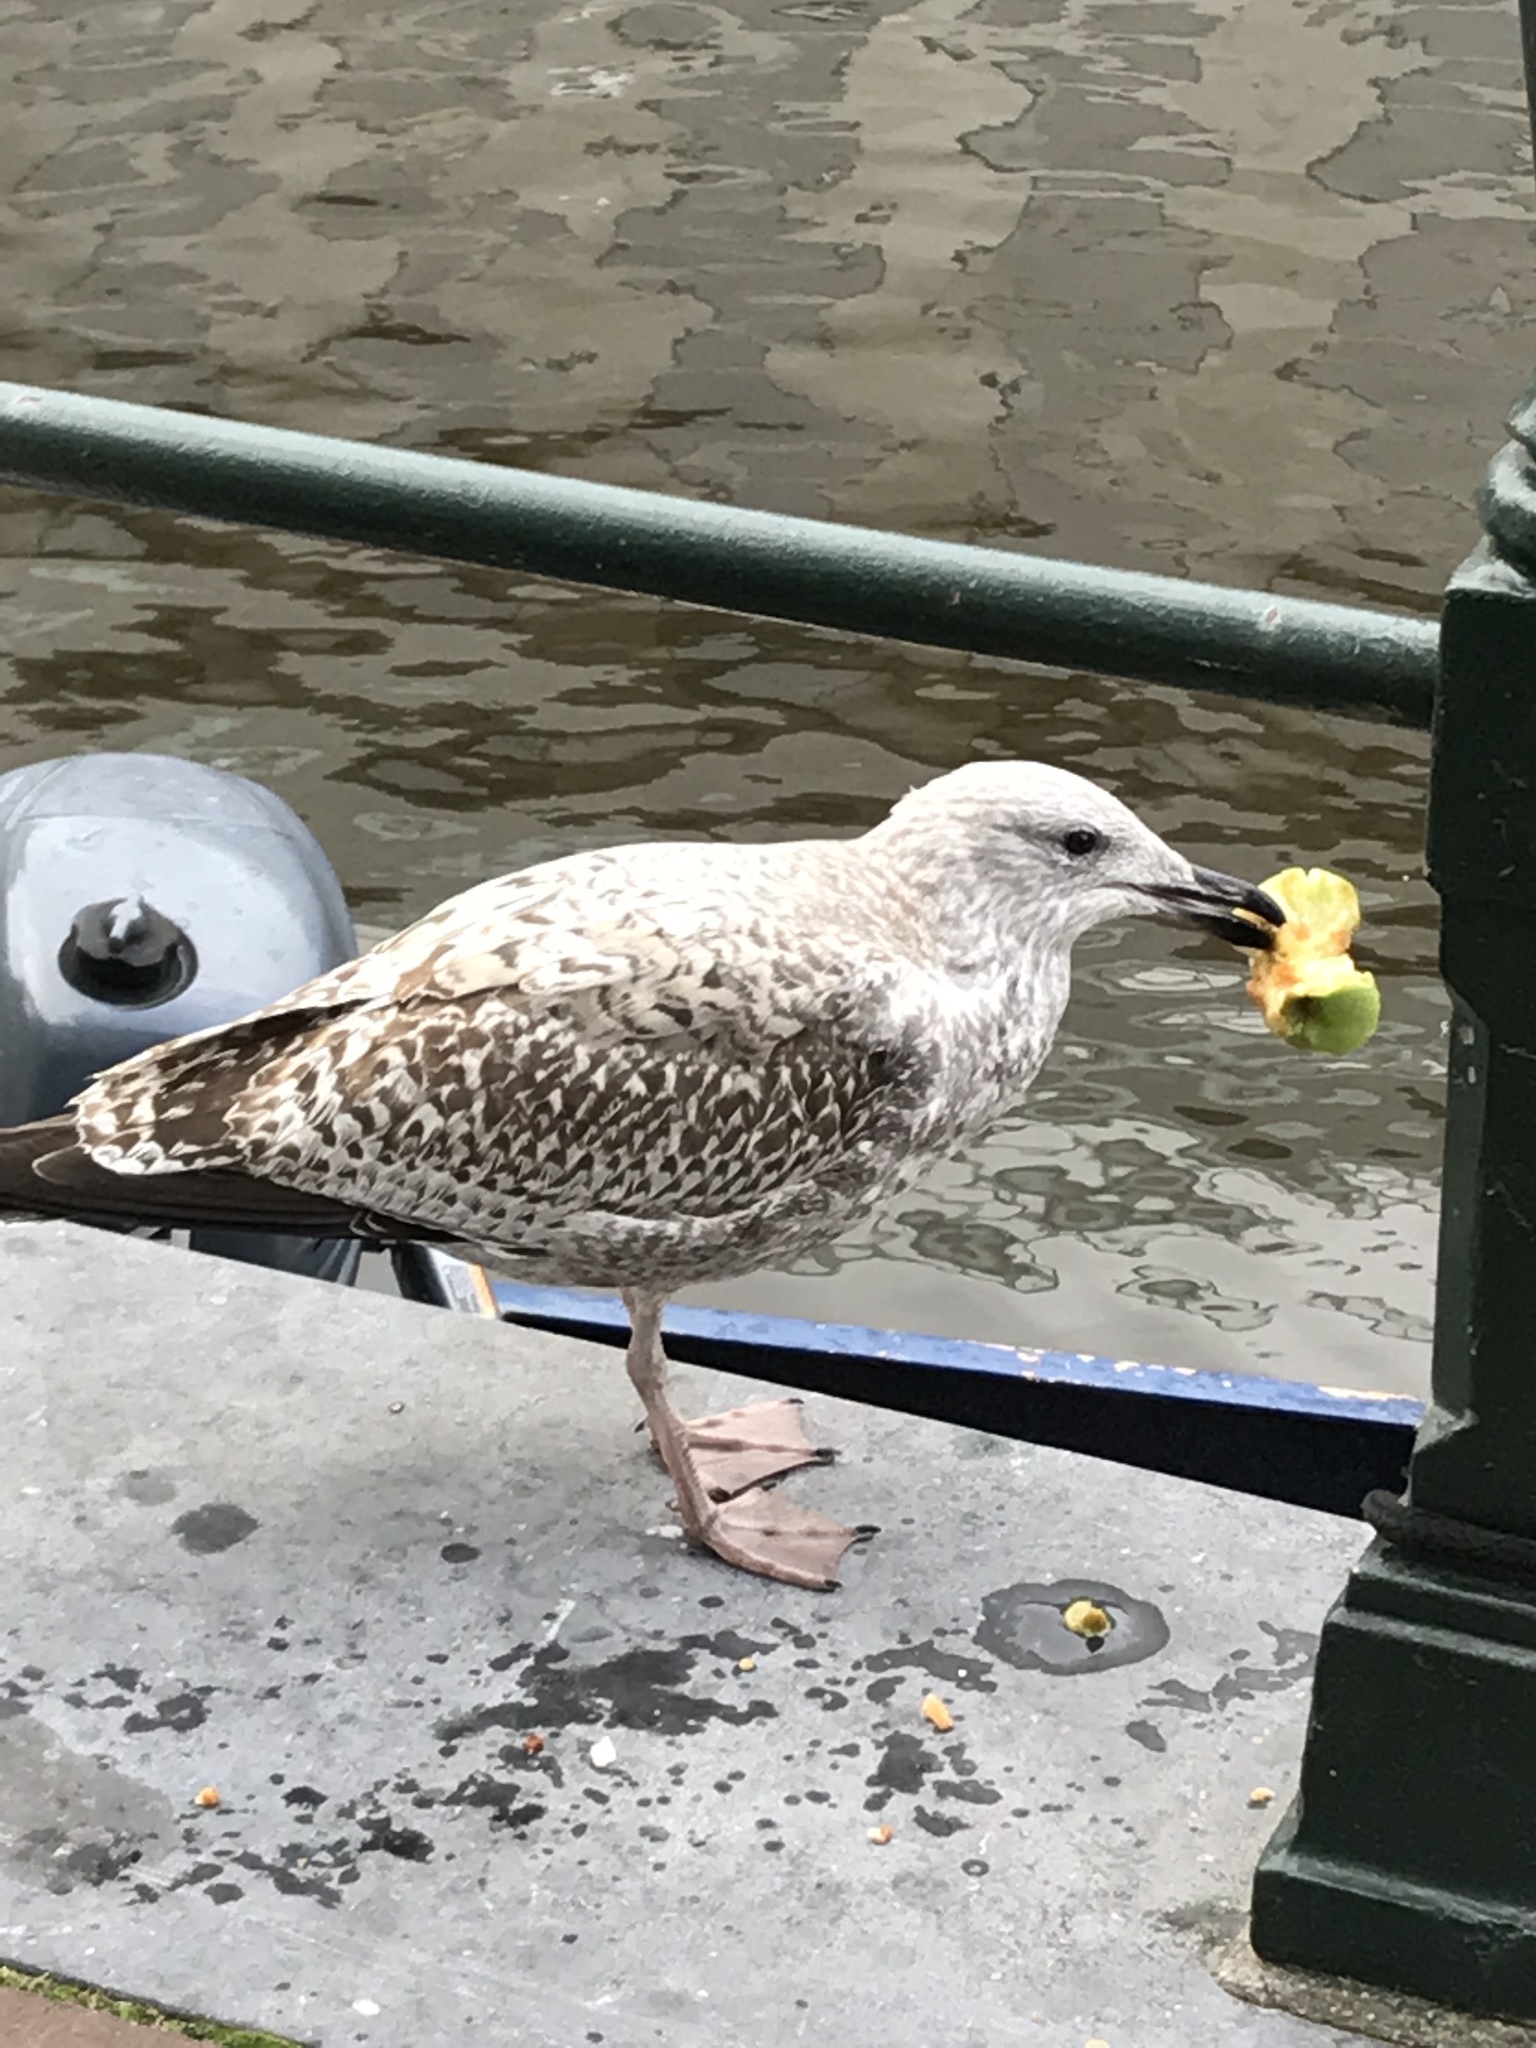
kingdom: Animalia
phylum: Chordata
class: Aves
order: Charadriiformes
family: Laridae
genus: Larus
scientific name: Larus argentatus
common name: Herring gull
